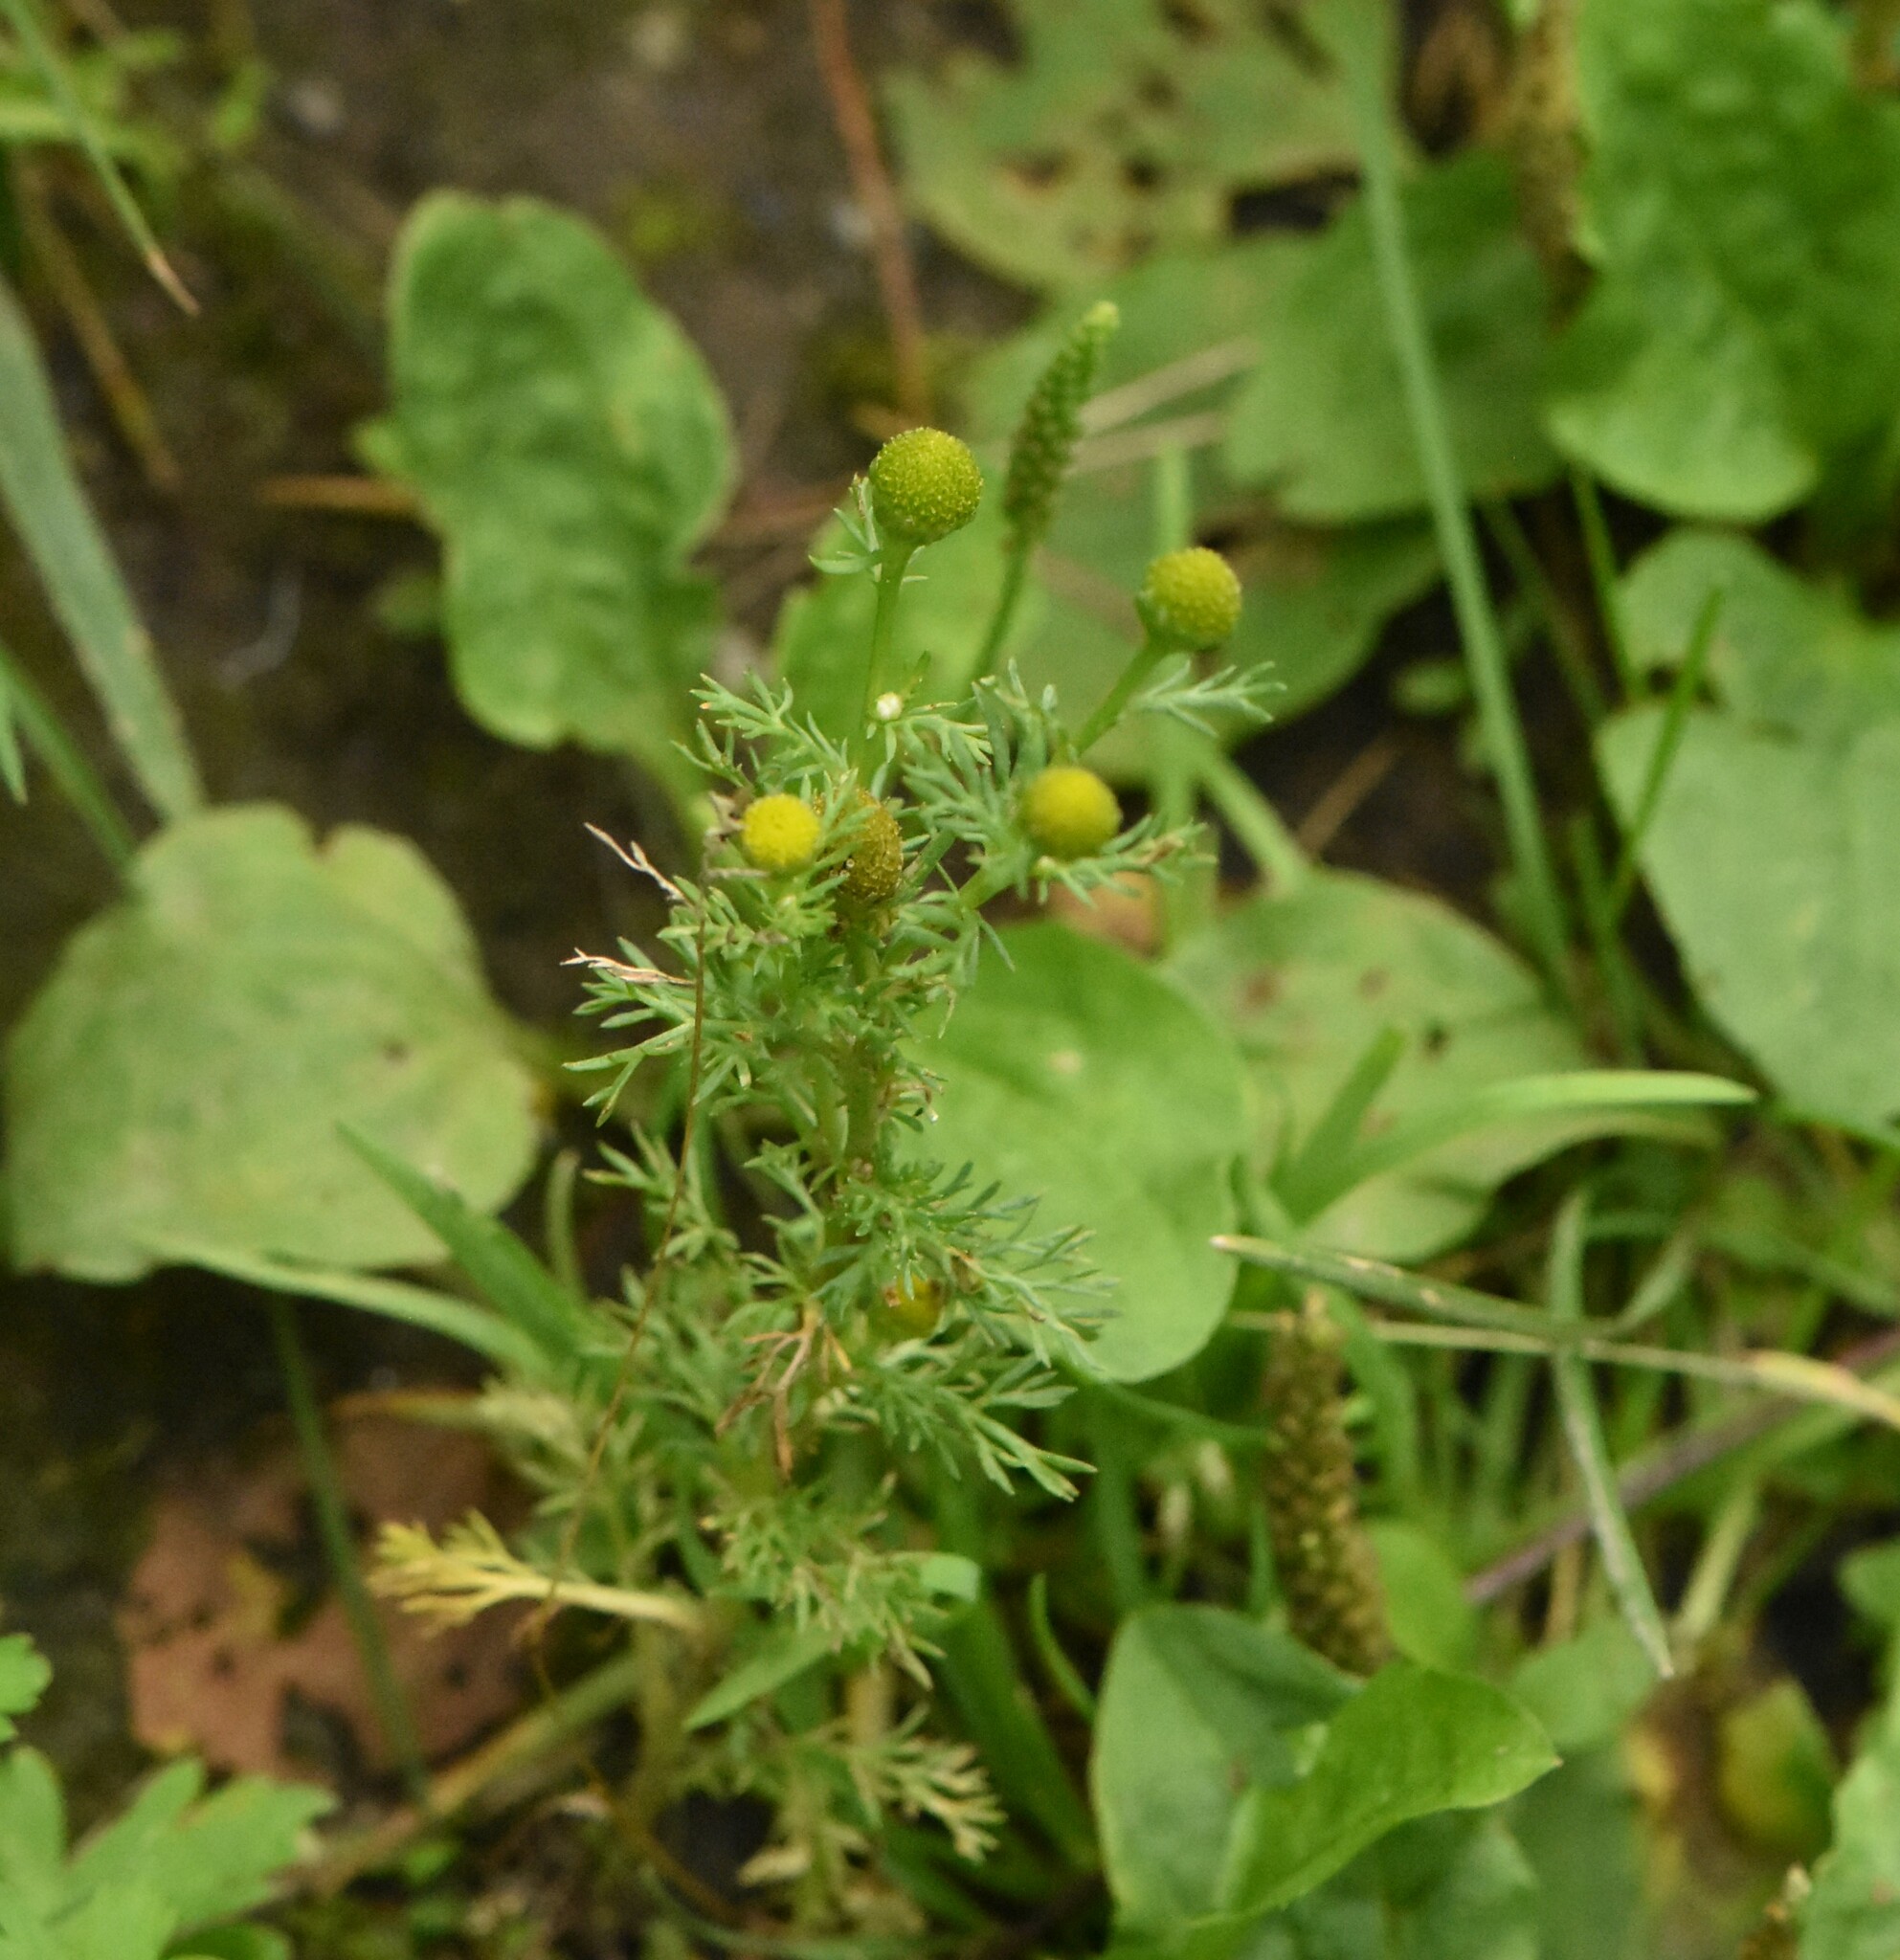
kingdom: Plantae
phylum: Tracheophyta
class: Magnoliopsida
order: Asterales
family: Asteraceae
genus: Matricaria
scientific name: Matricaria discoidea
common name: Disc mayweed
